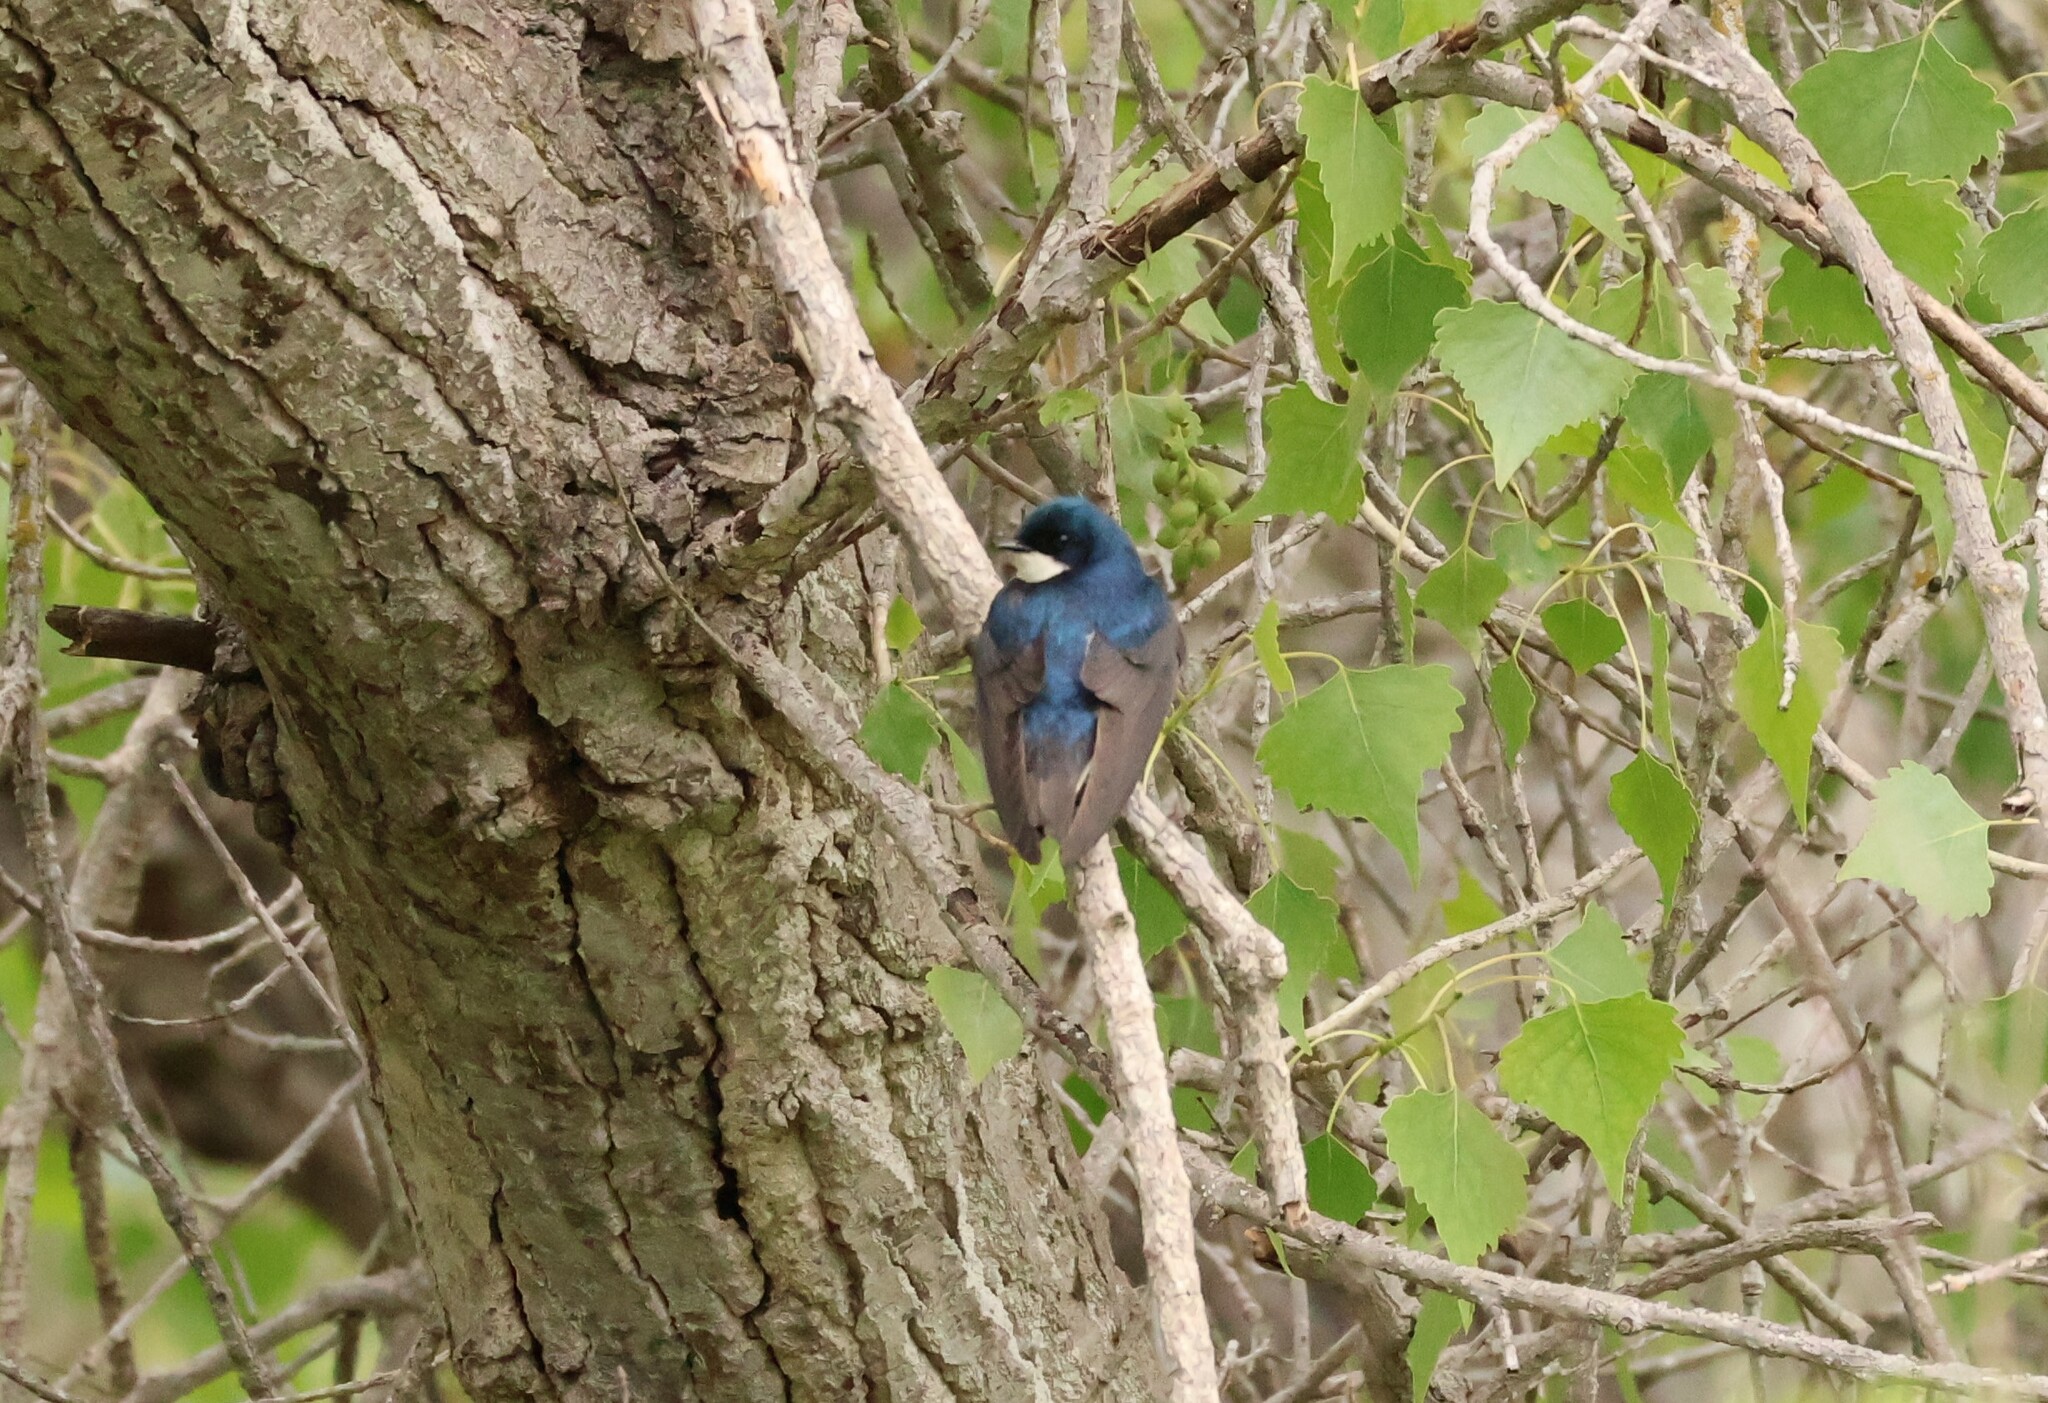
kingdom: Animalia
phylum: Chordata
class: Aves
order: Passeriformes
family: Hirundinidae
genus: Tachycineta
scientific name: Tachycineta bicolor
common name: Tree swallow
